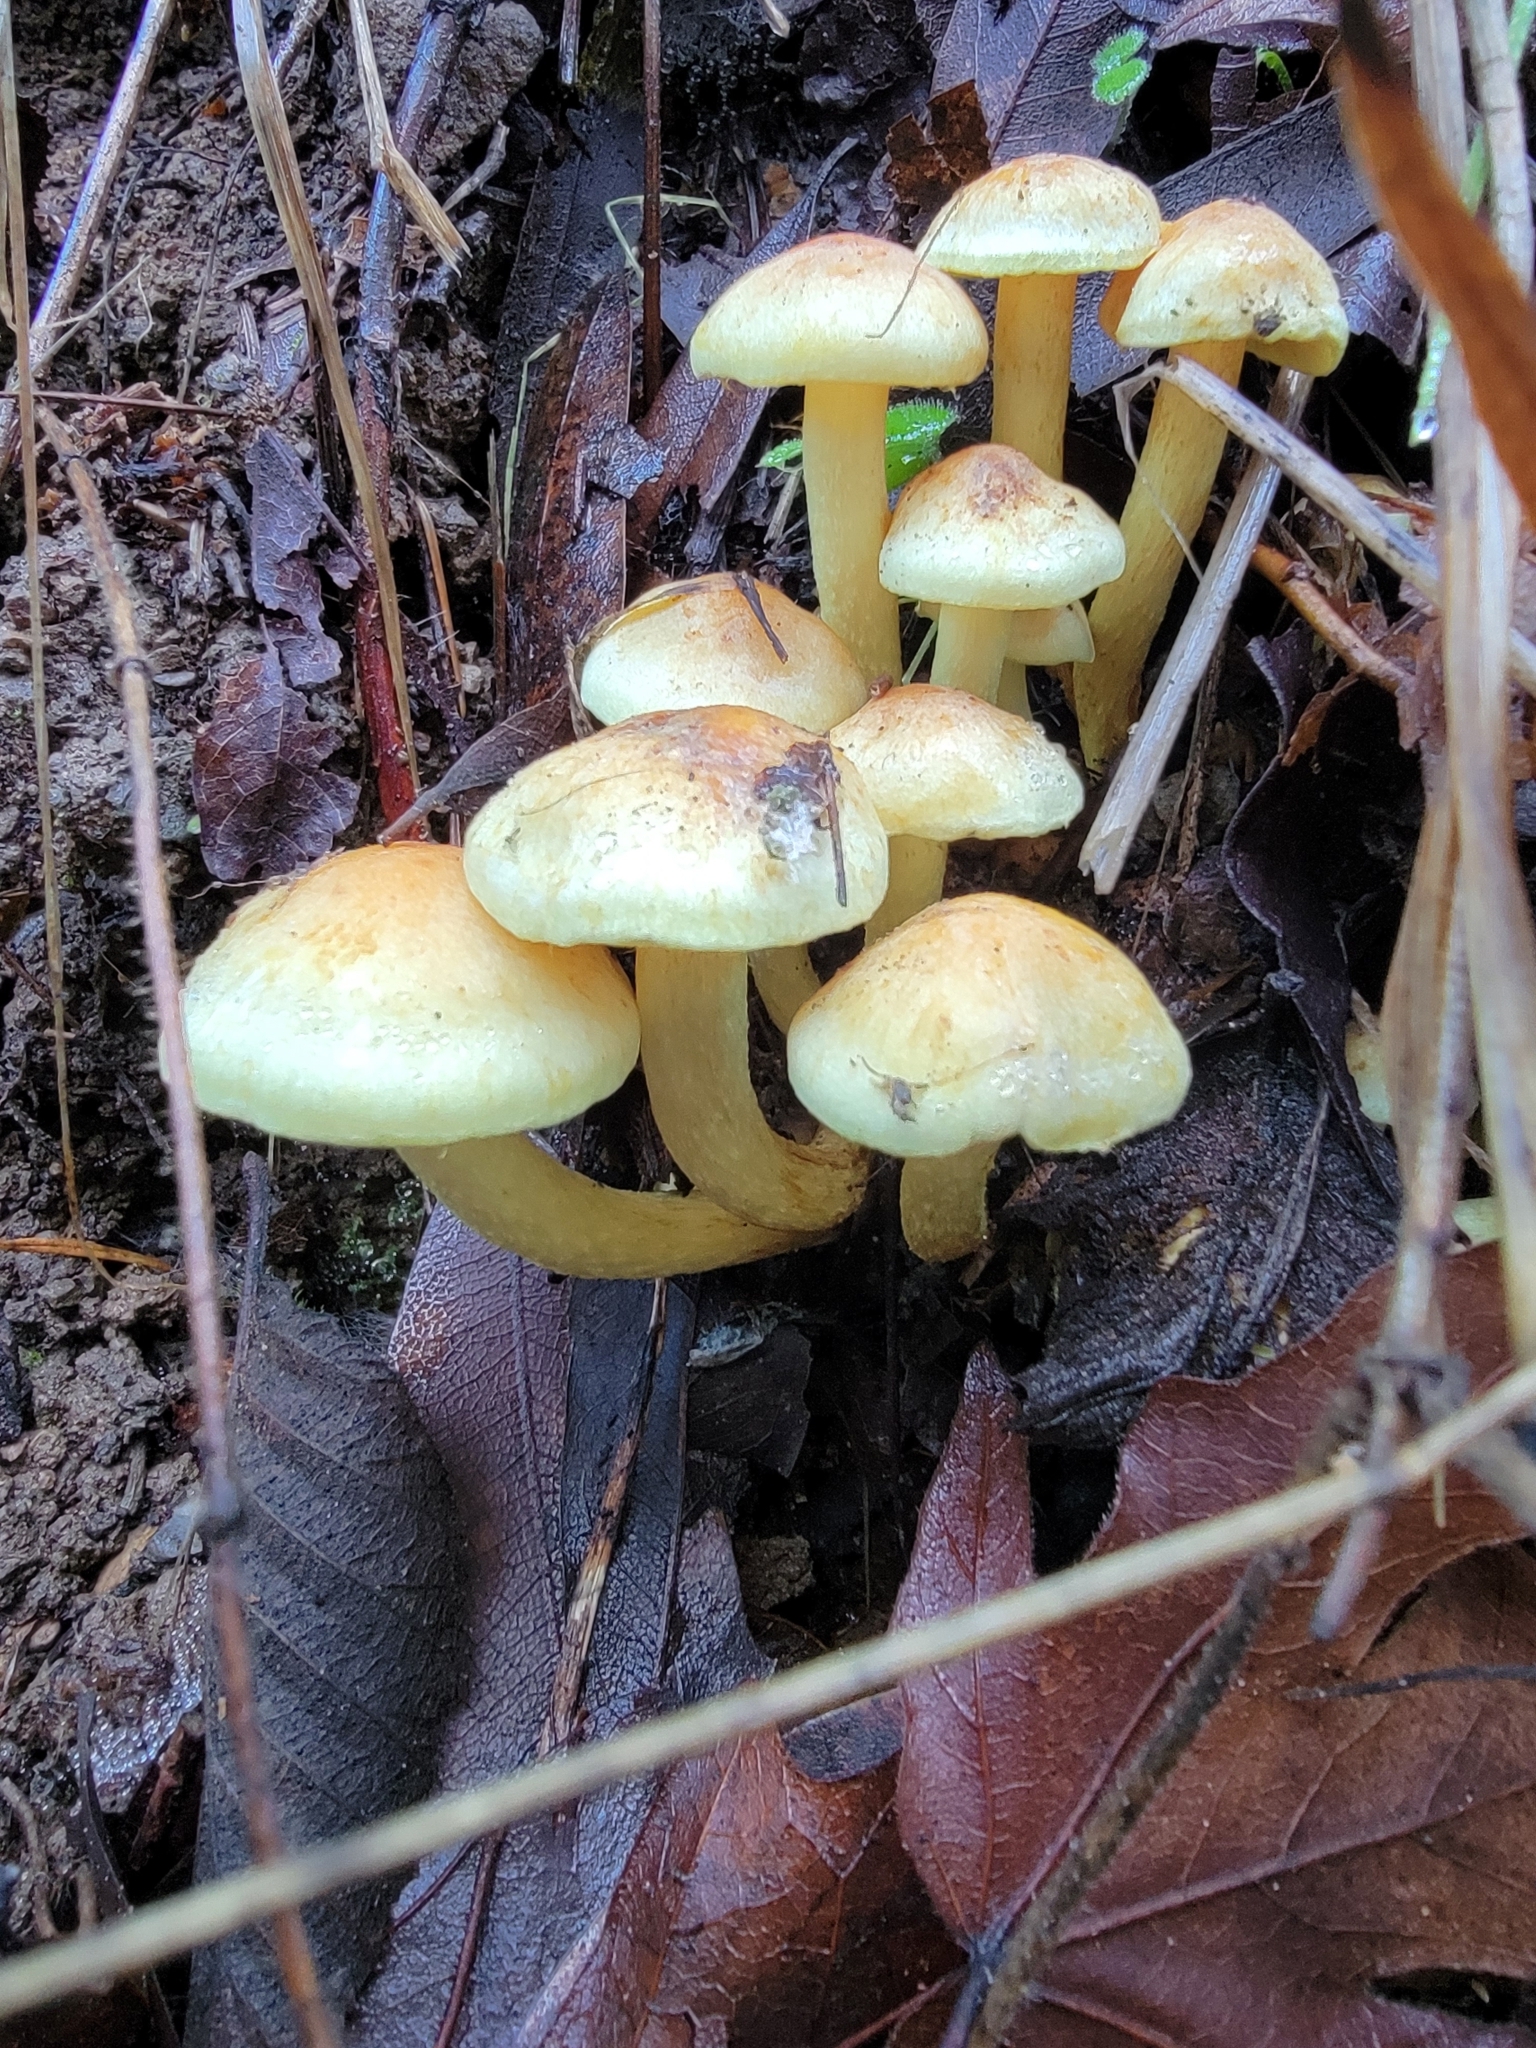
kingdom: Fungi
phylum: Basidiomycota
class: Agaricomycetes
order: Agaricales
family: Strophariaceae
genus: Hypholoma
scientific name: Hypholoma fasciculare
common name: Sulphur tuft
